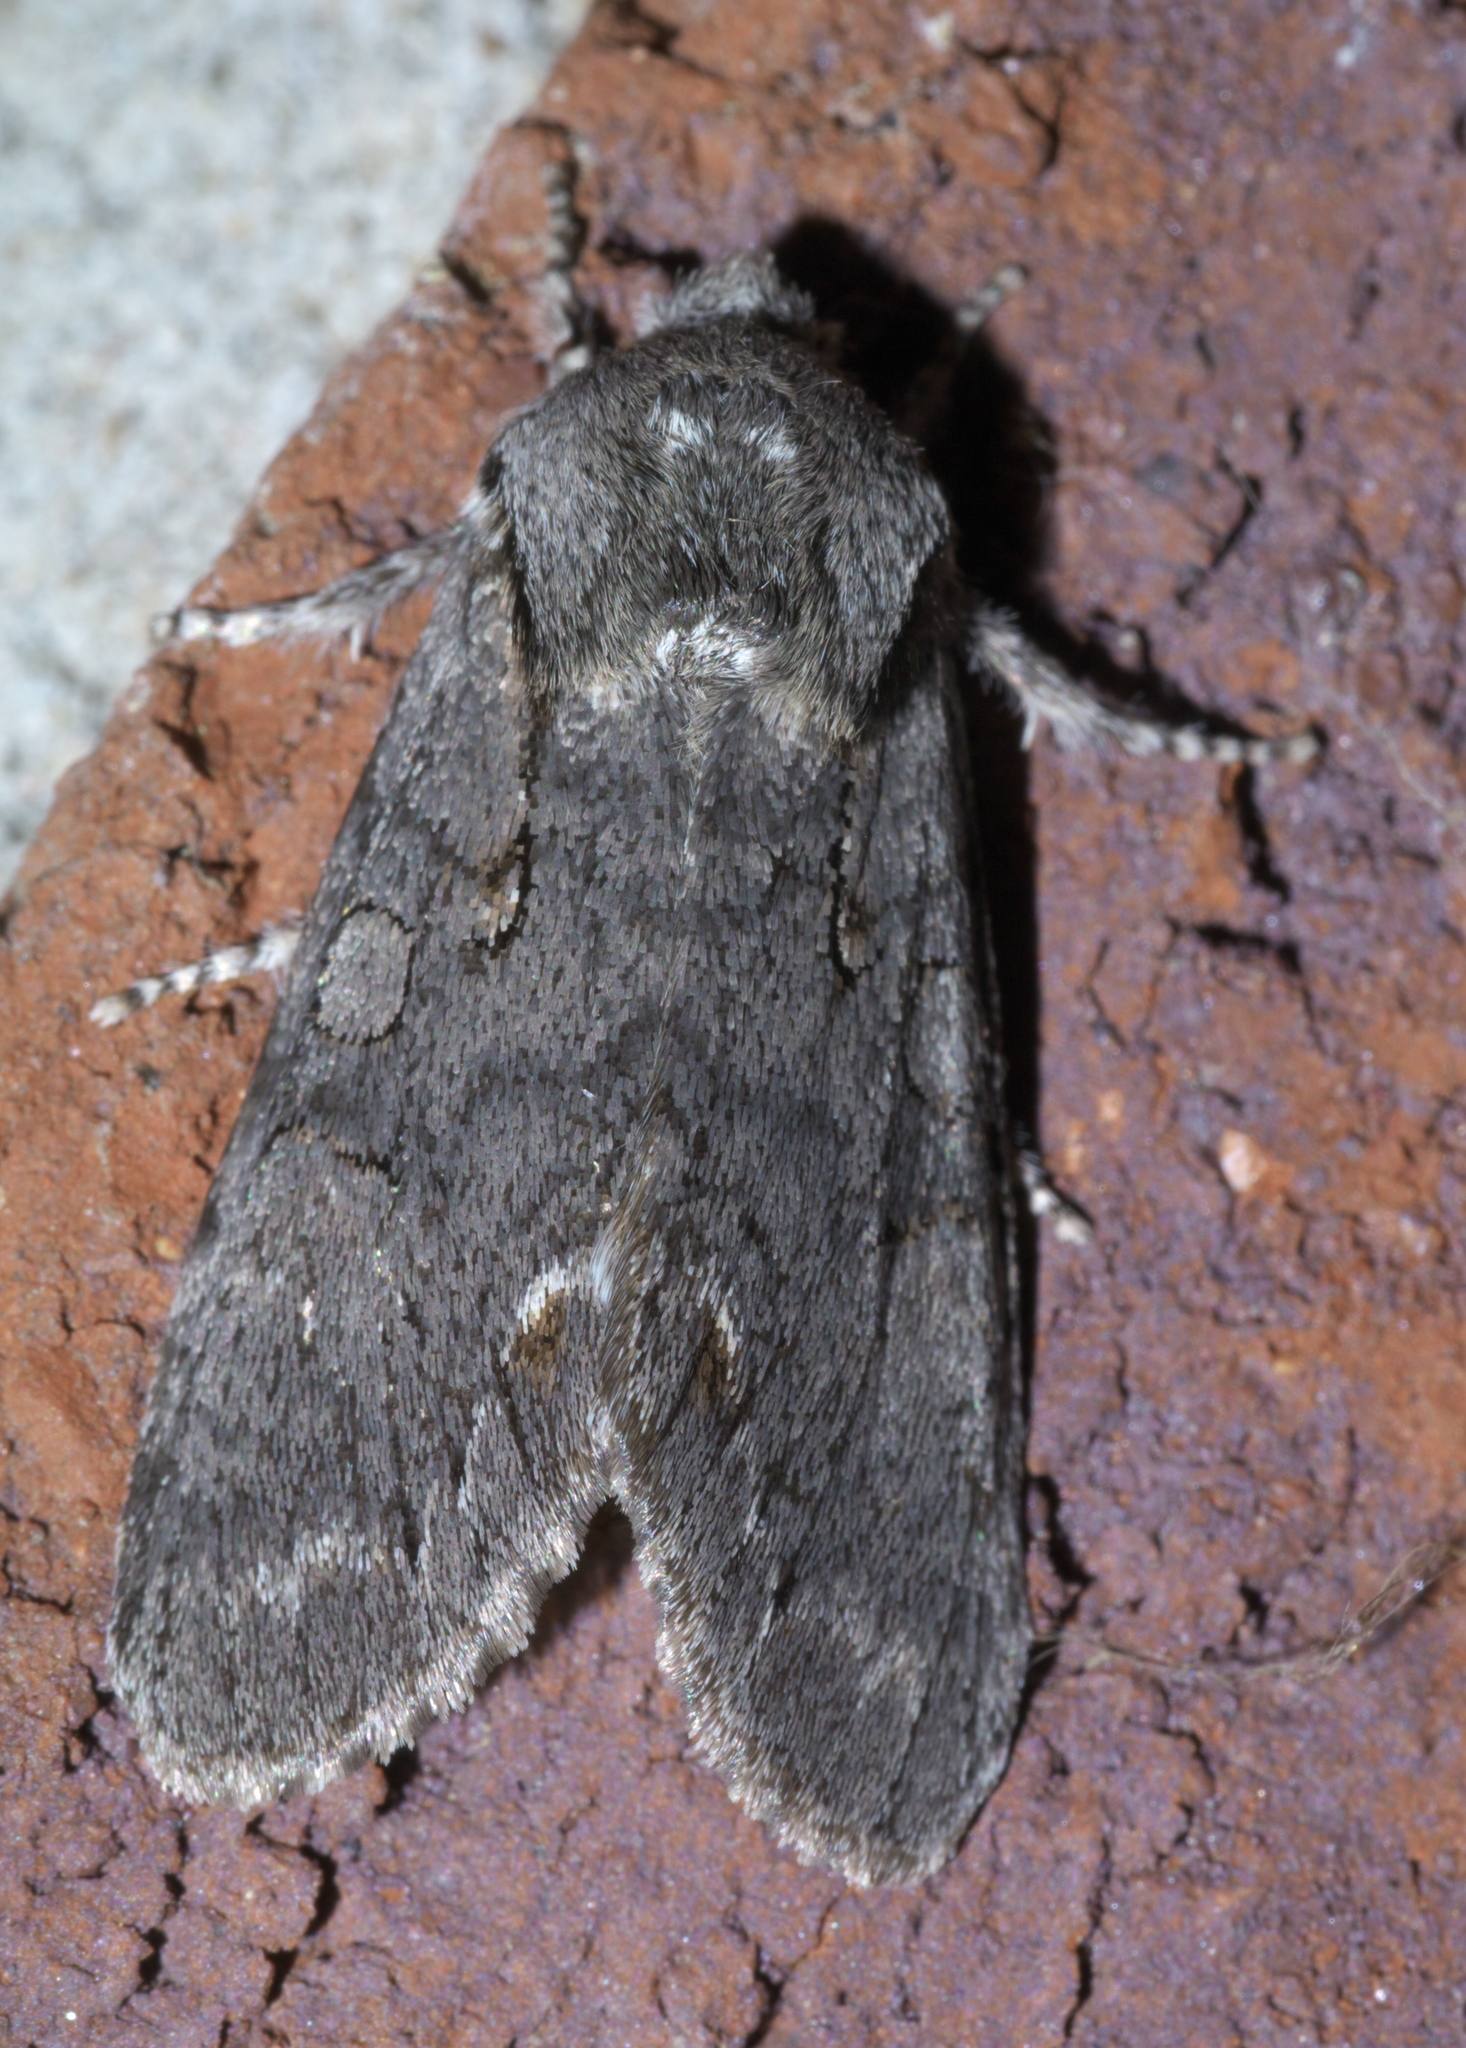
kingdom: Animalia
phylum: Arthropoda
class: Insecta
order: Lepidoptera
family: Noctuidae
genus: Psaphida
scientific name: Psaphida electilis
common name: Chosen sallow
